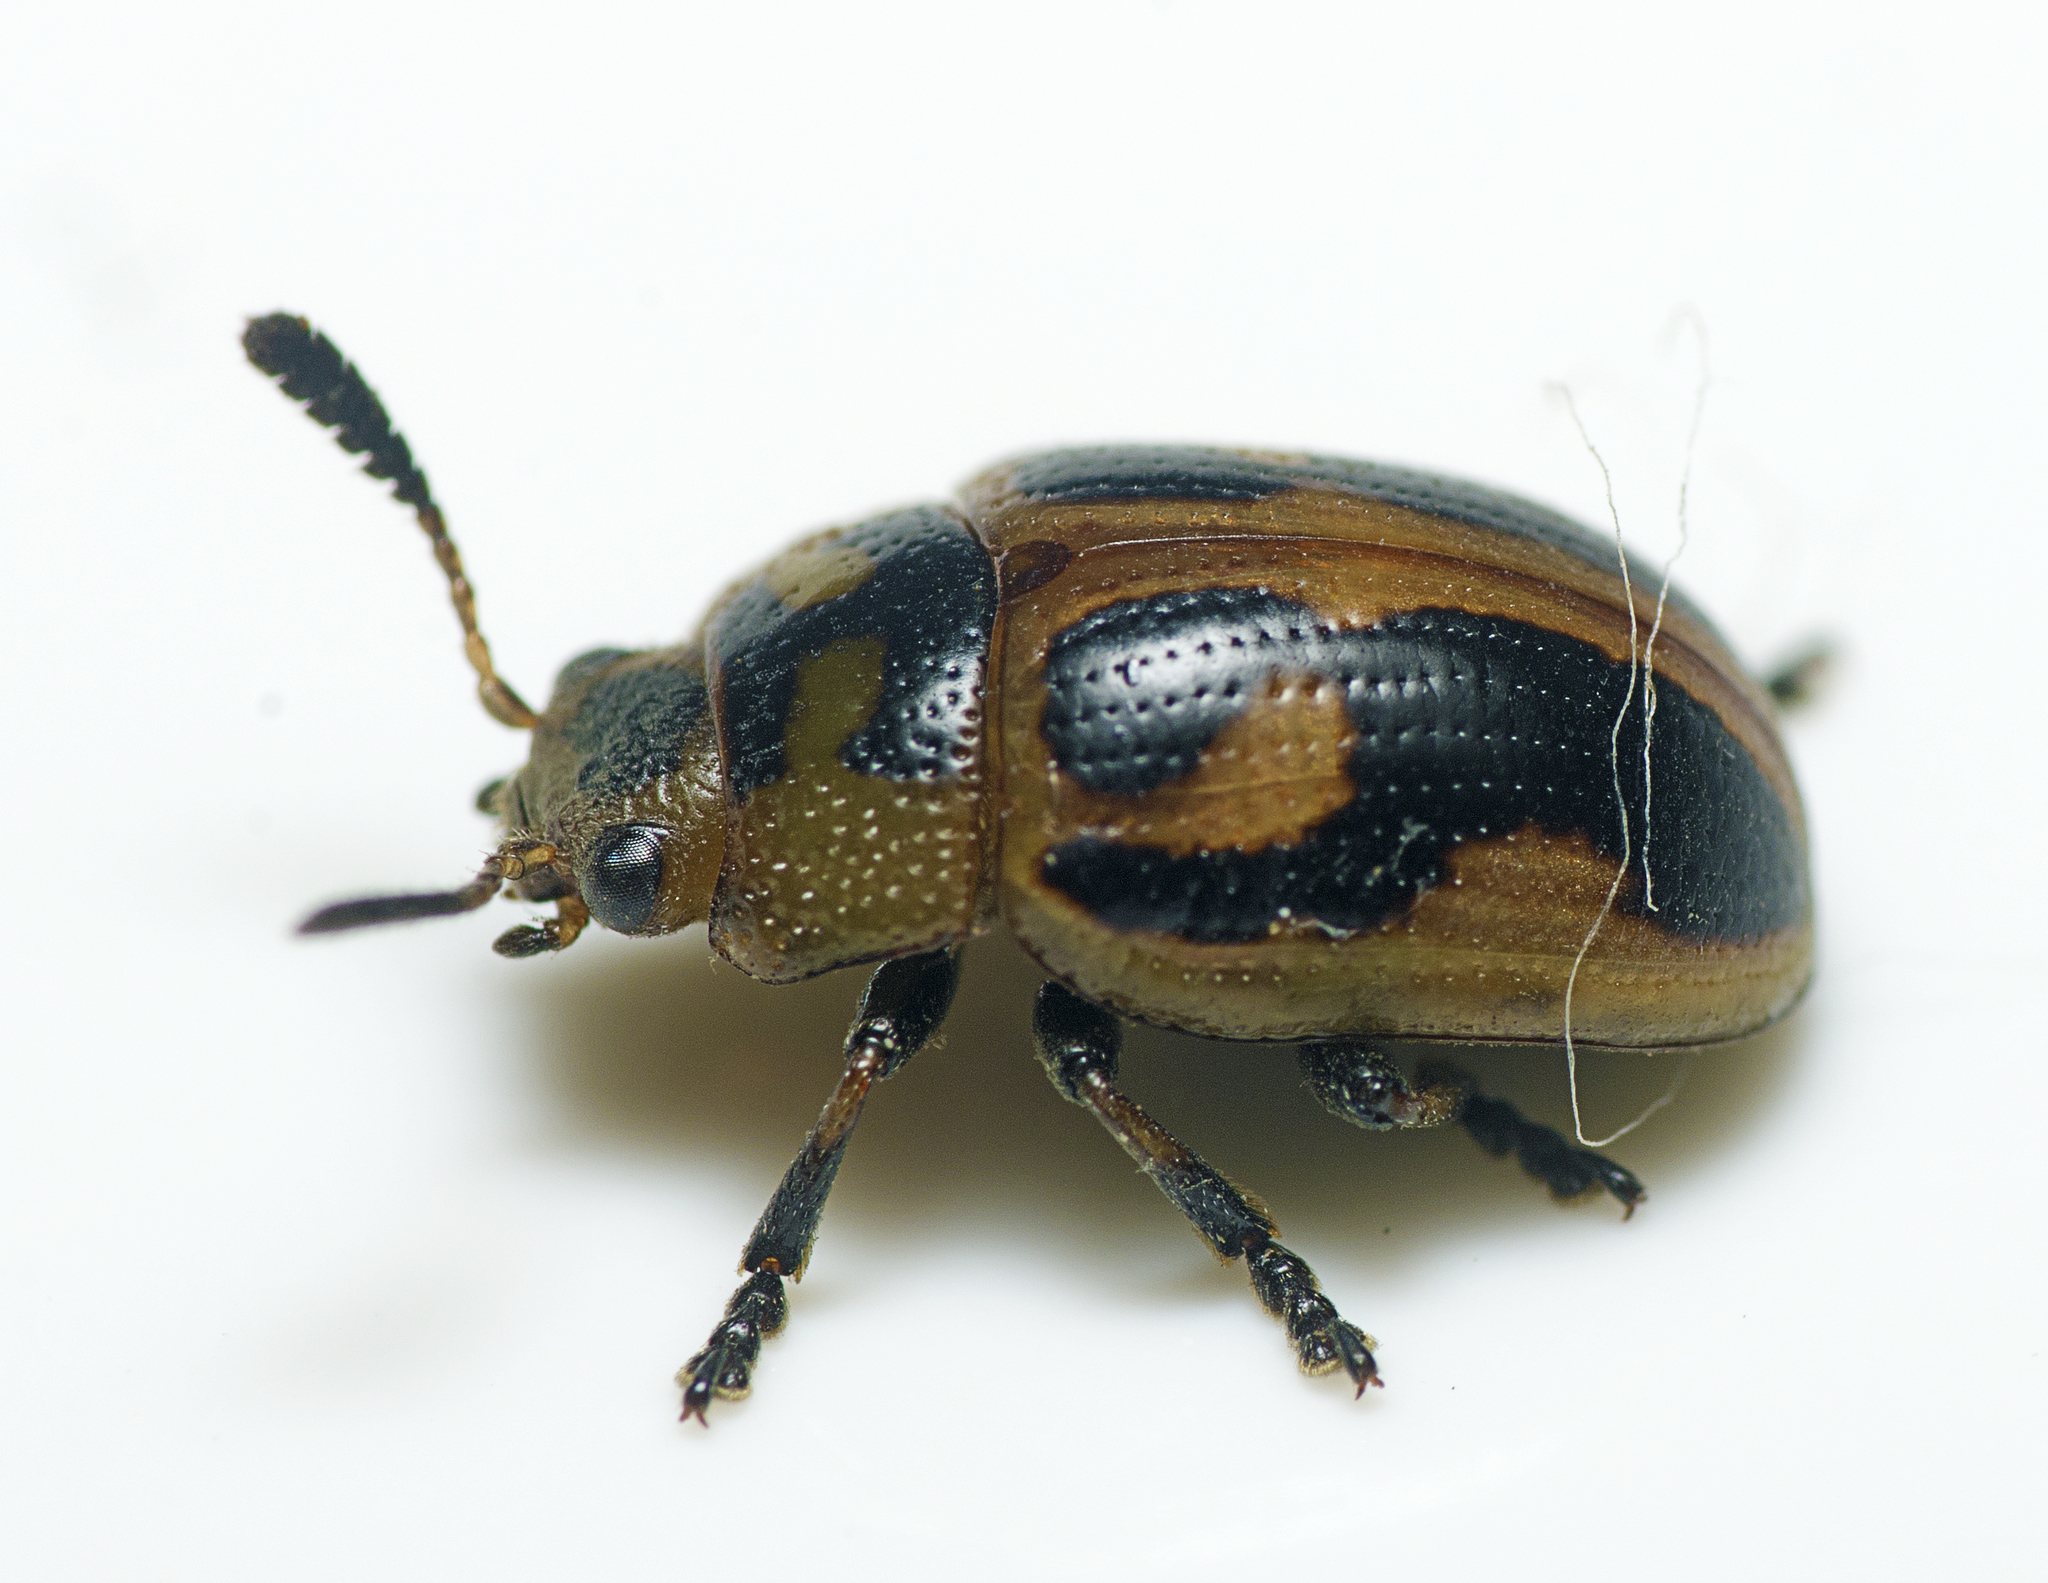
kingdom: Animalia
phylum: Arthropoda
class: Insecta
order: Coleoptera
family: Chrysomelidae
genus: Calomela
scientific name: Calomela
